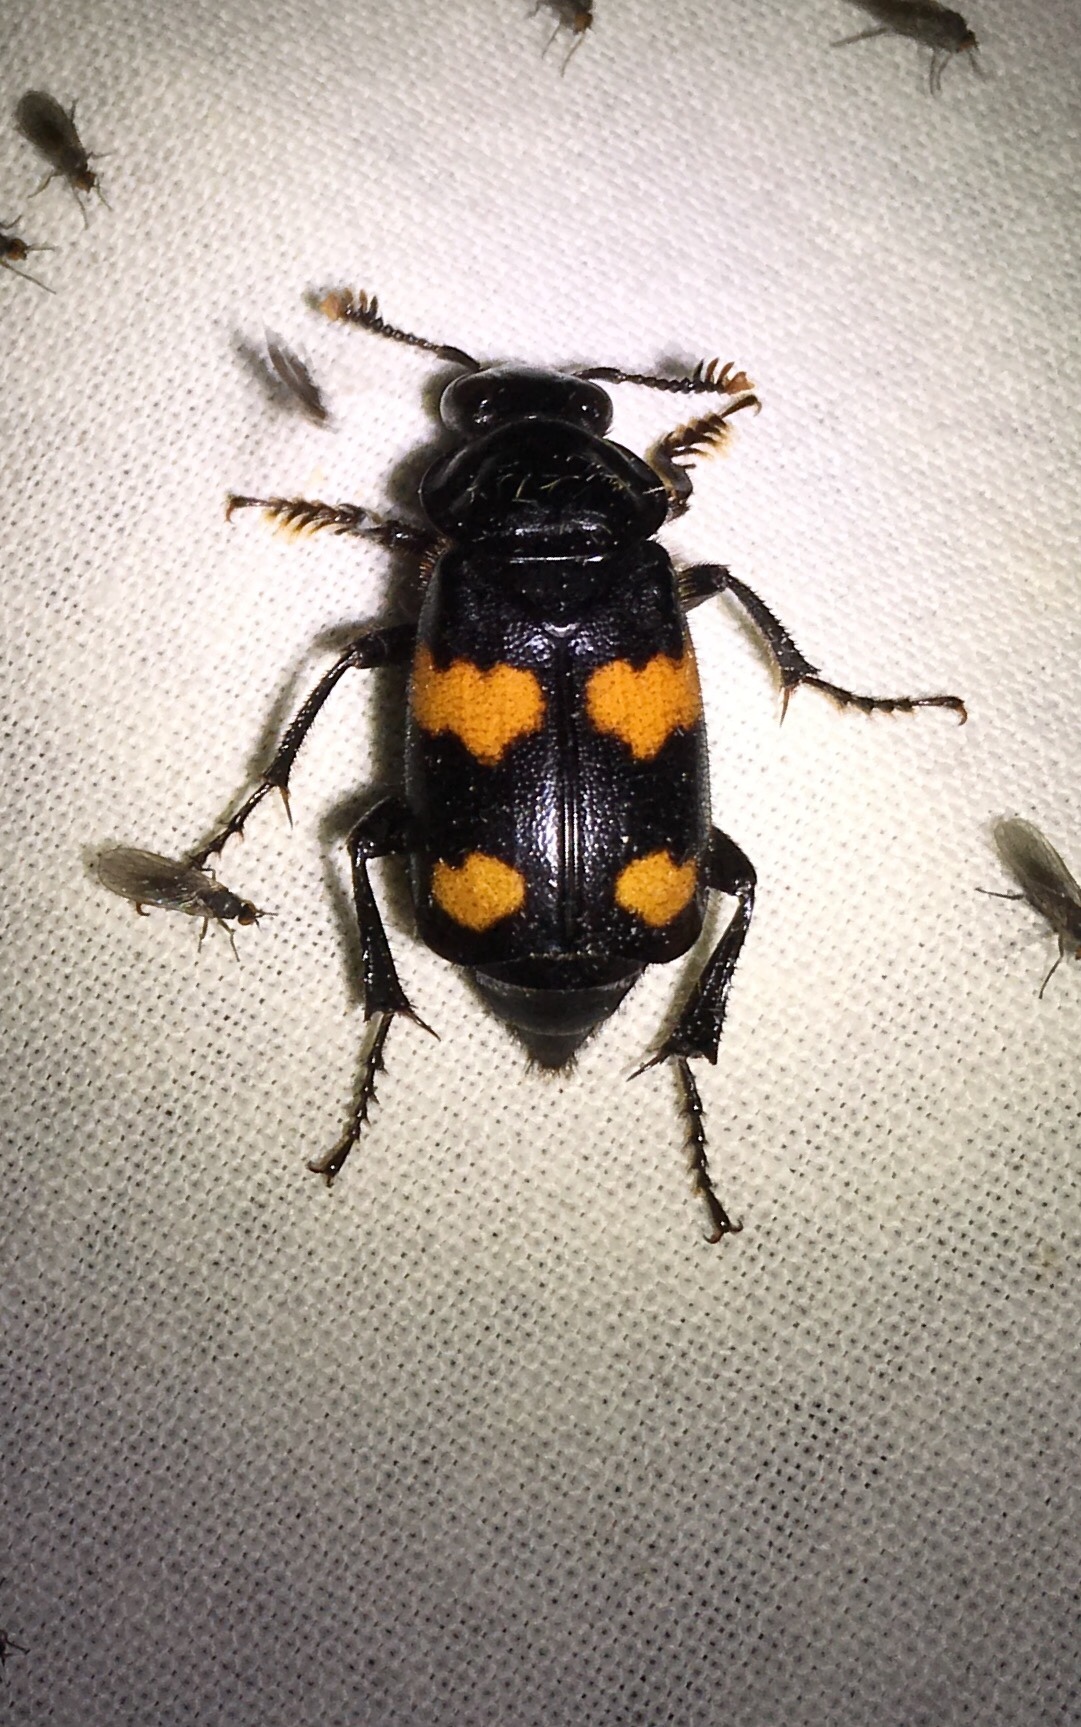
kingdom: Animalia
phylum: Arthropoda
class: Insecta
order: Coleoptera
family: Staphylinidae
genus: Nicrophorus
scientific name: Nicrophorus orbicollis
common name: Roundneck sexton beetle
